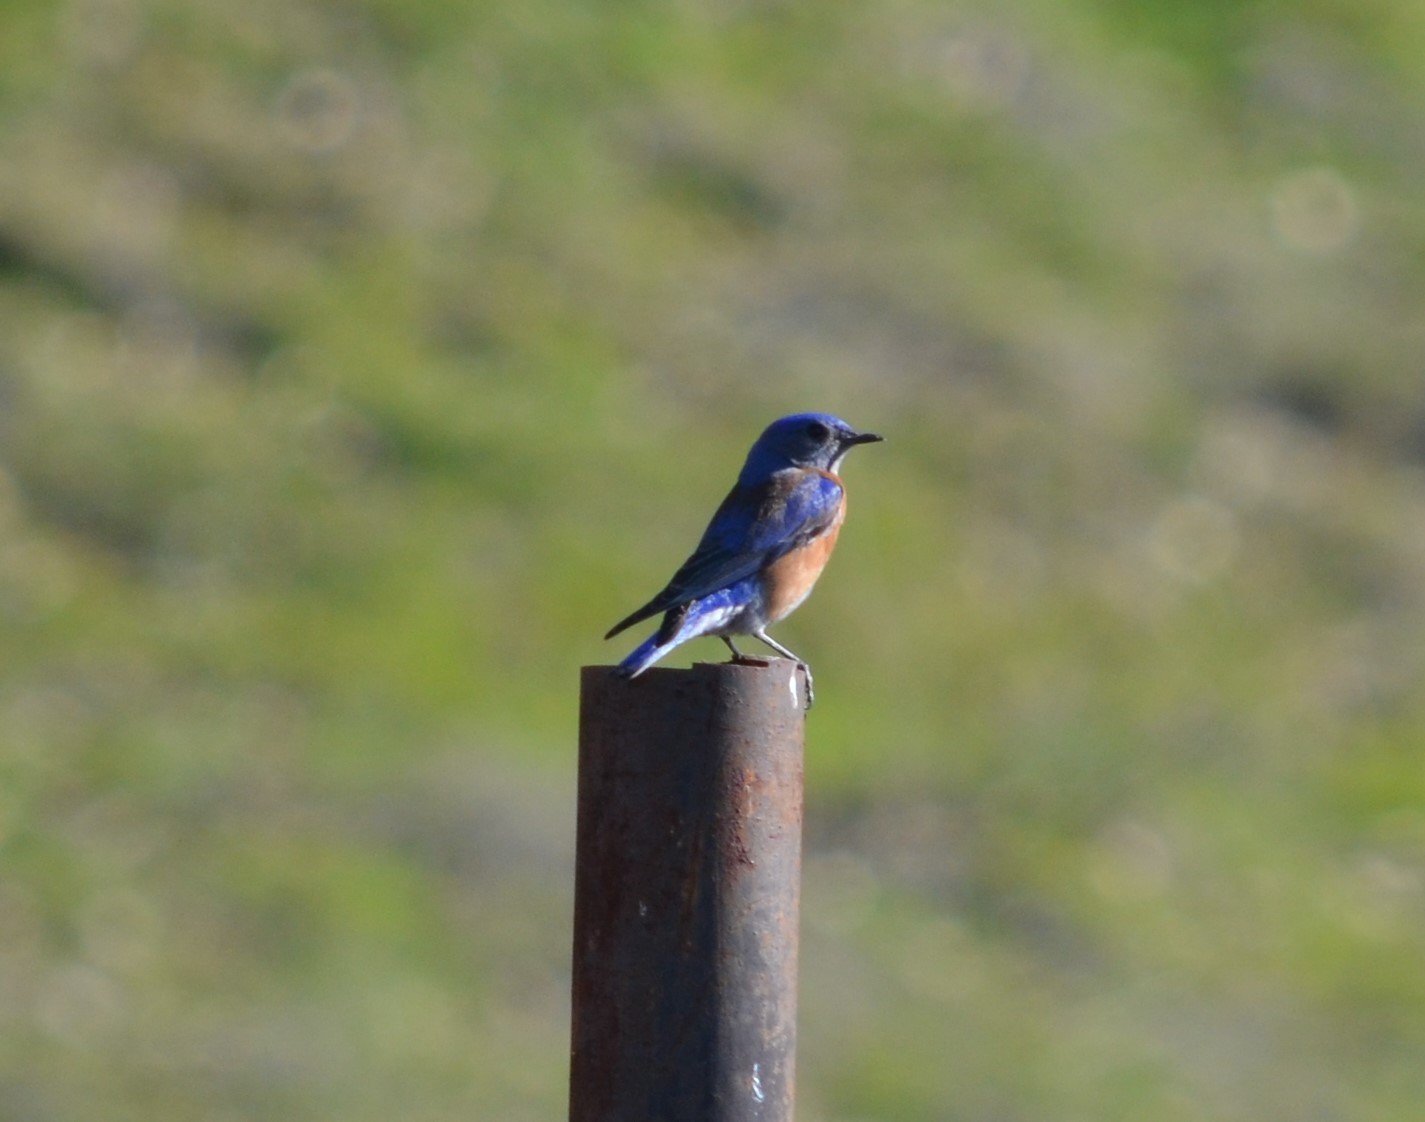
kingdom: Animalia
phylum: Chordata
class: Aves
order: Passeriformes
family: Turdidae
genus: Sialia
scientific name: Sialia mexicana
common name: Western bluebird
